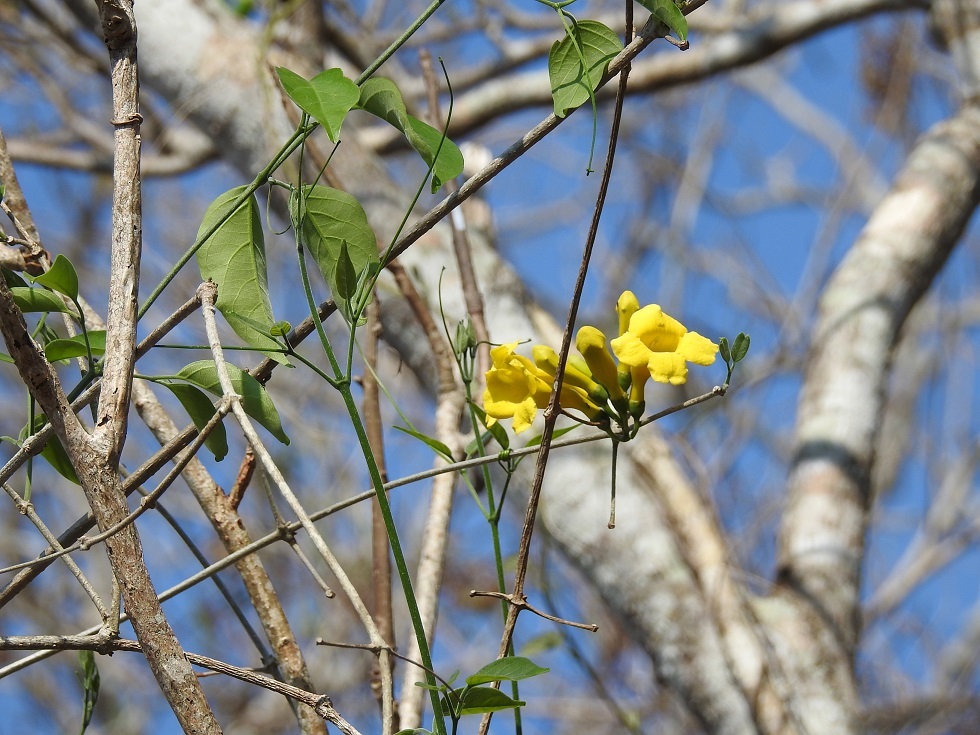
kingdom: Plantae
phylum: Tracheophyta
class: Magnoliopsida
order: Lamiales
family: Bignoniaceae
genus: Anemopaegma
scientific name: Anemopaegma chrysanthum
